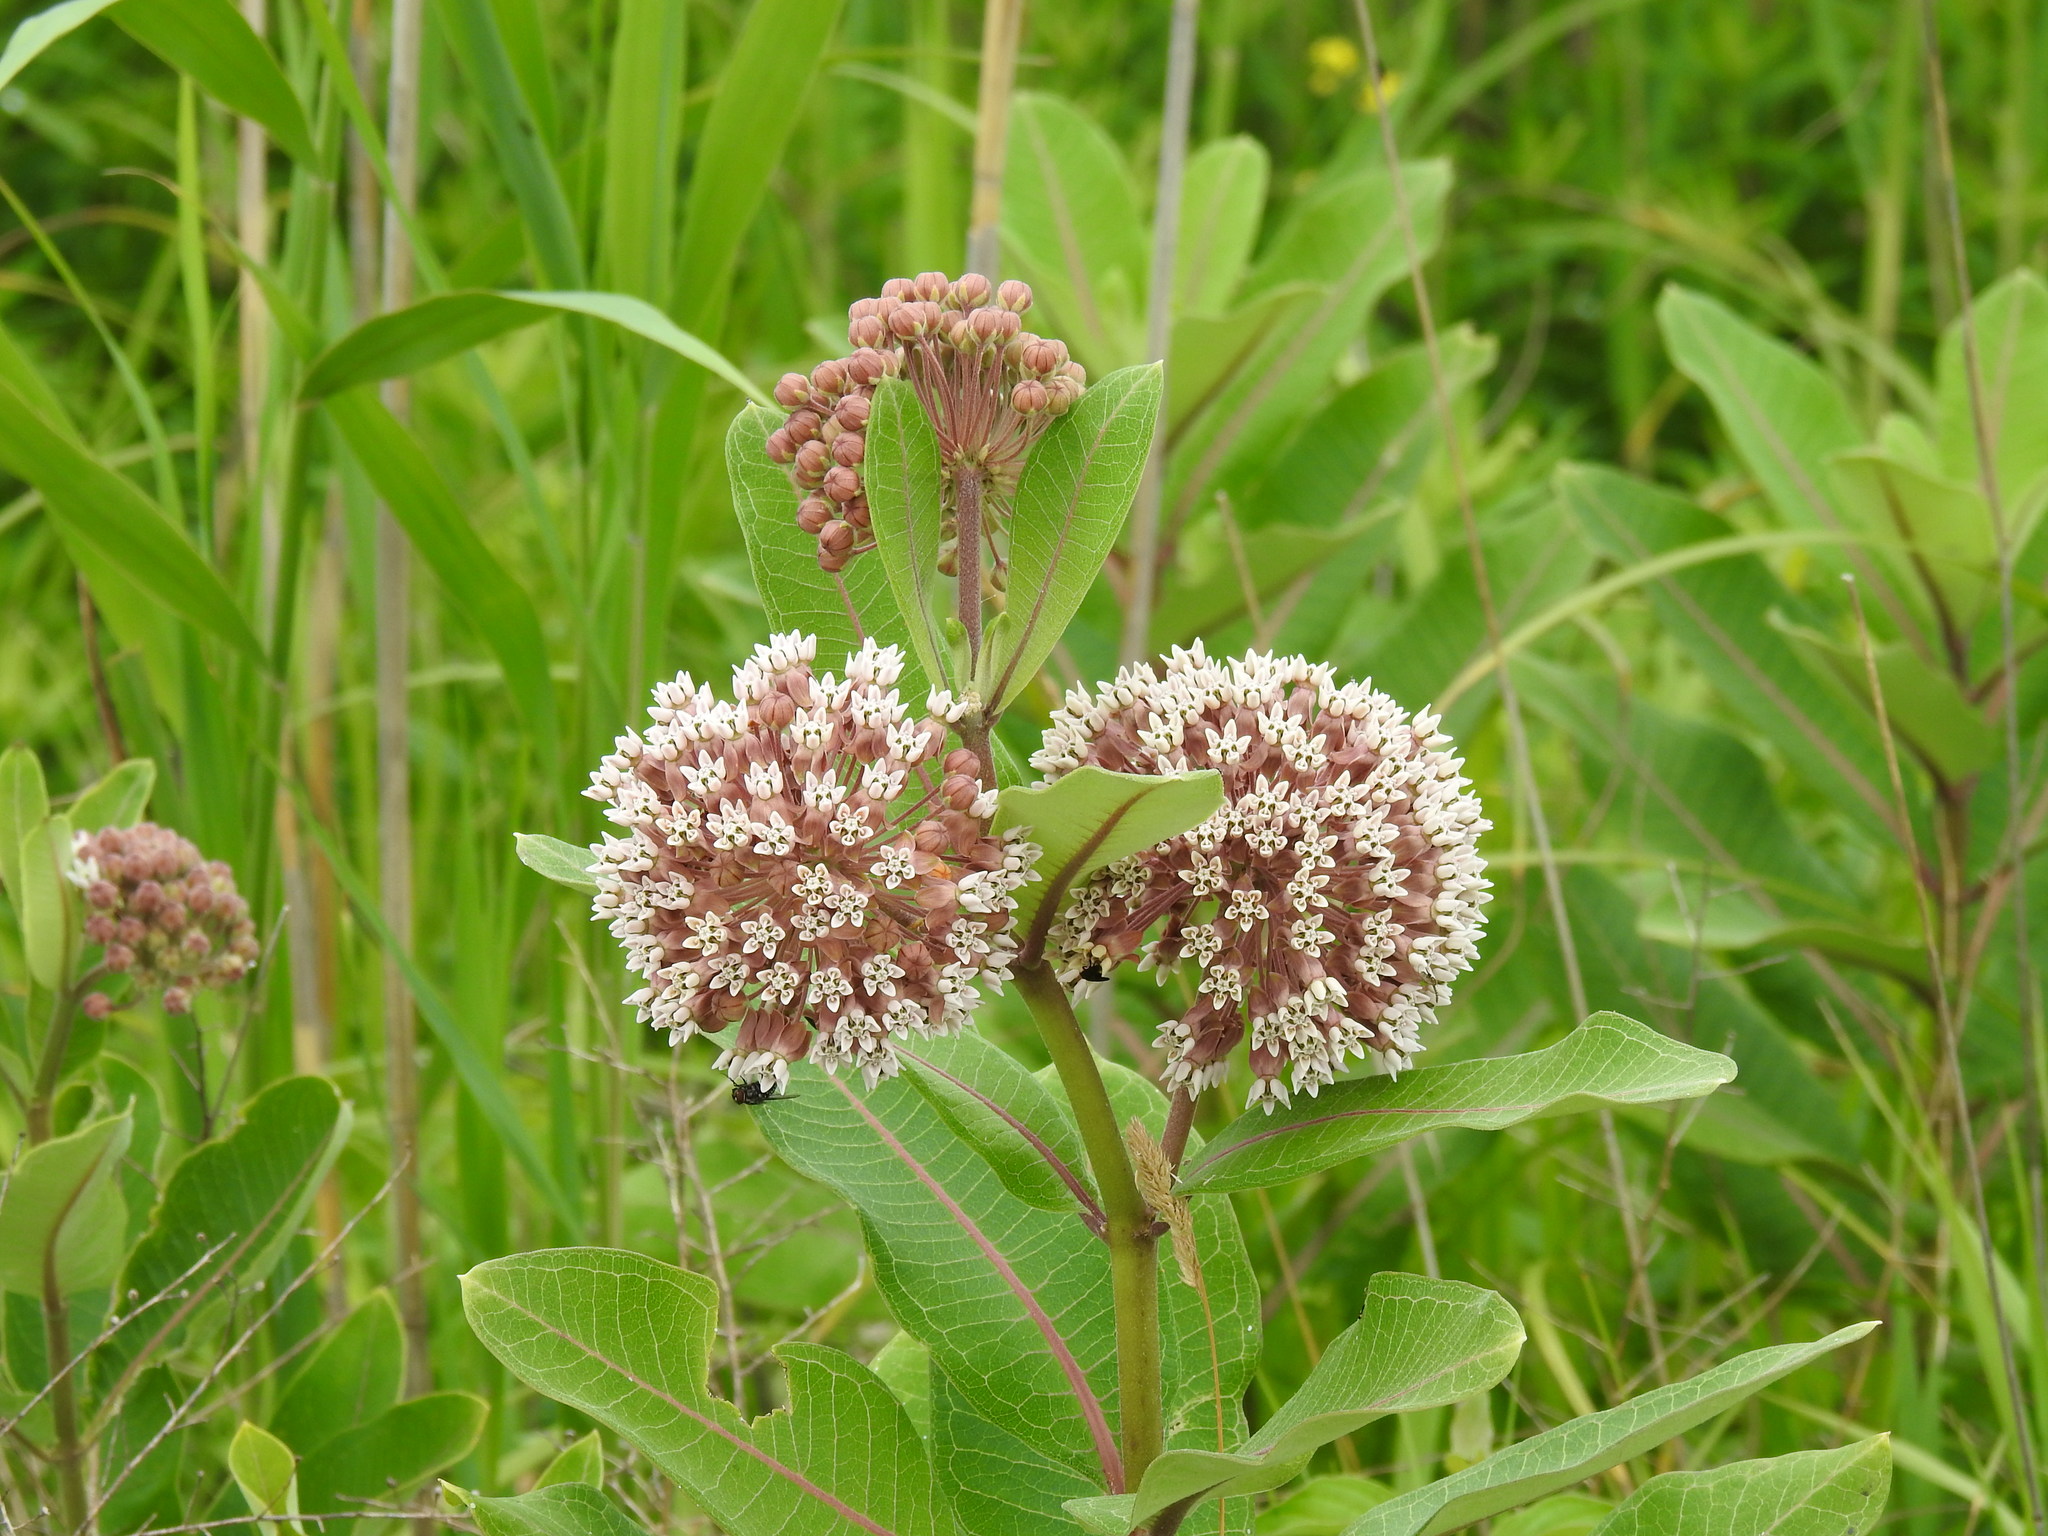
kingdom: Plantae
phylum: Tracheophyta
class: Magnoliopsida
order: Gentianales
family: Apocynaceae
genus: Asclepias
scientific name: Asclepias syriaca
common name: Common milkweed
